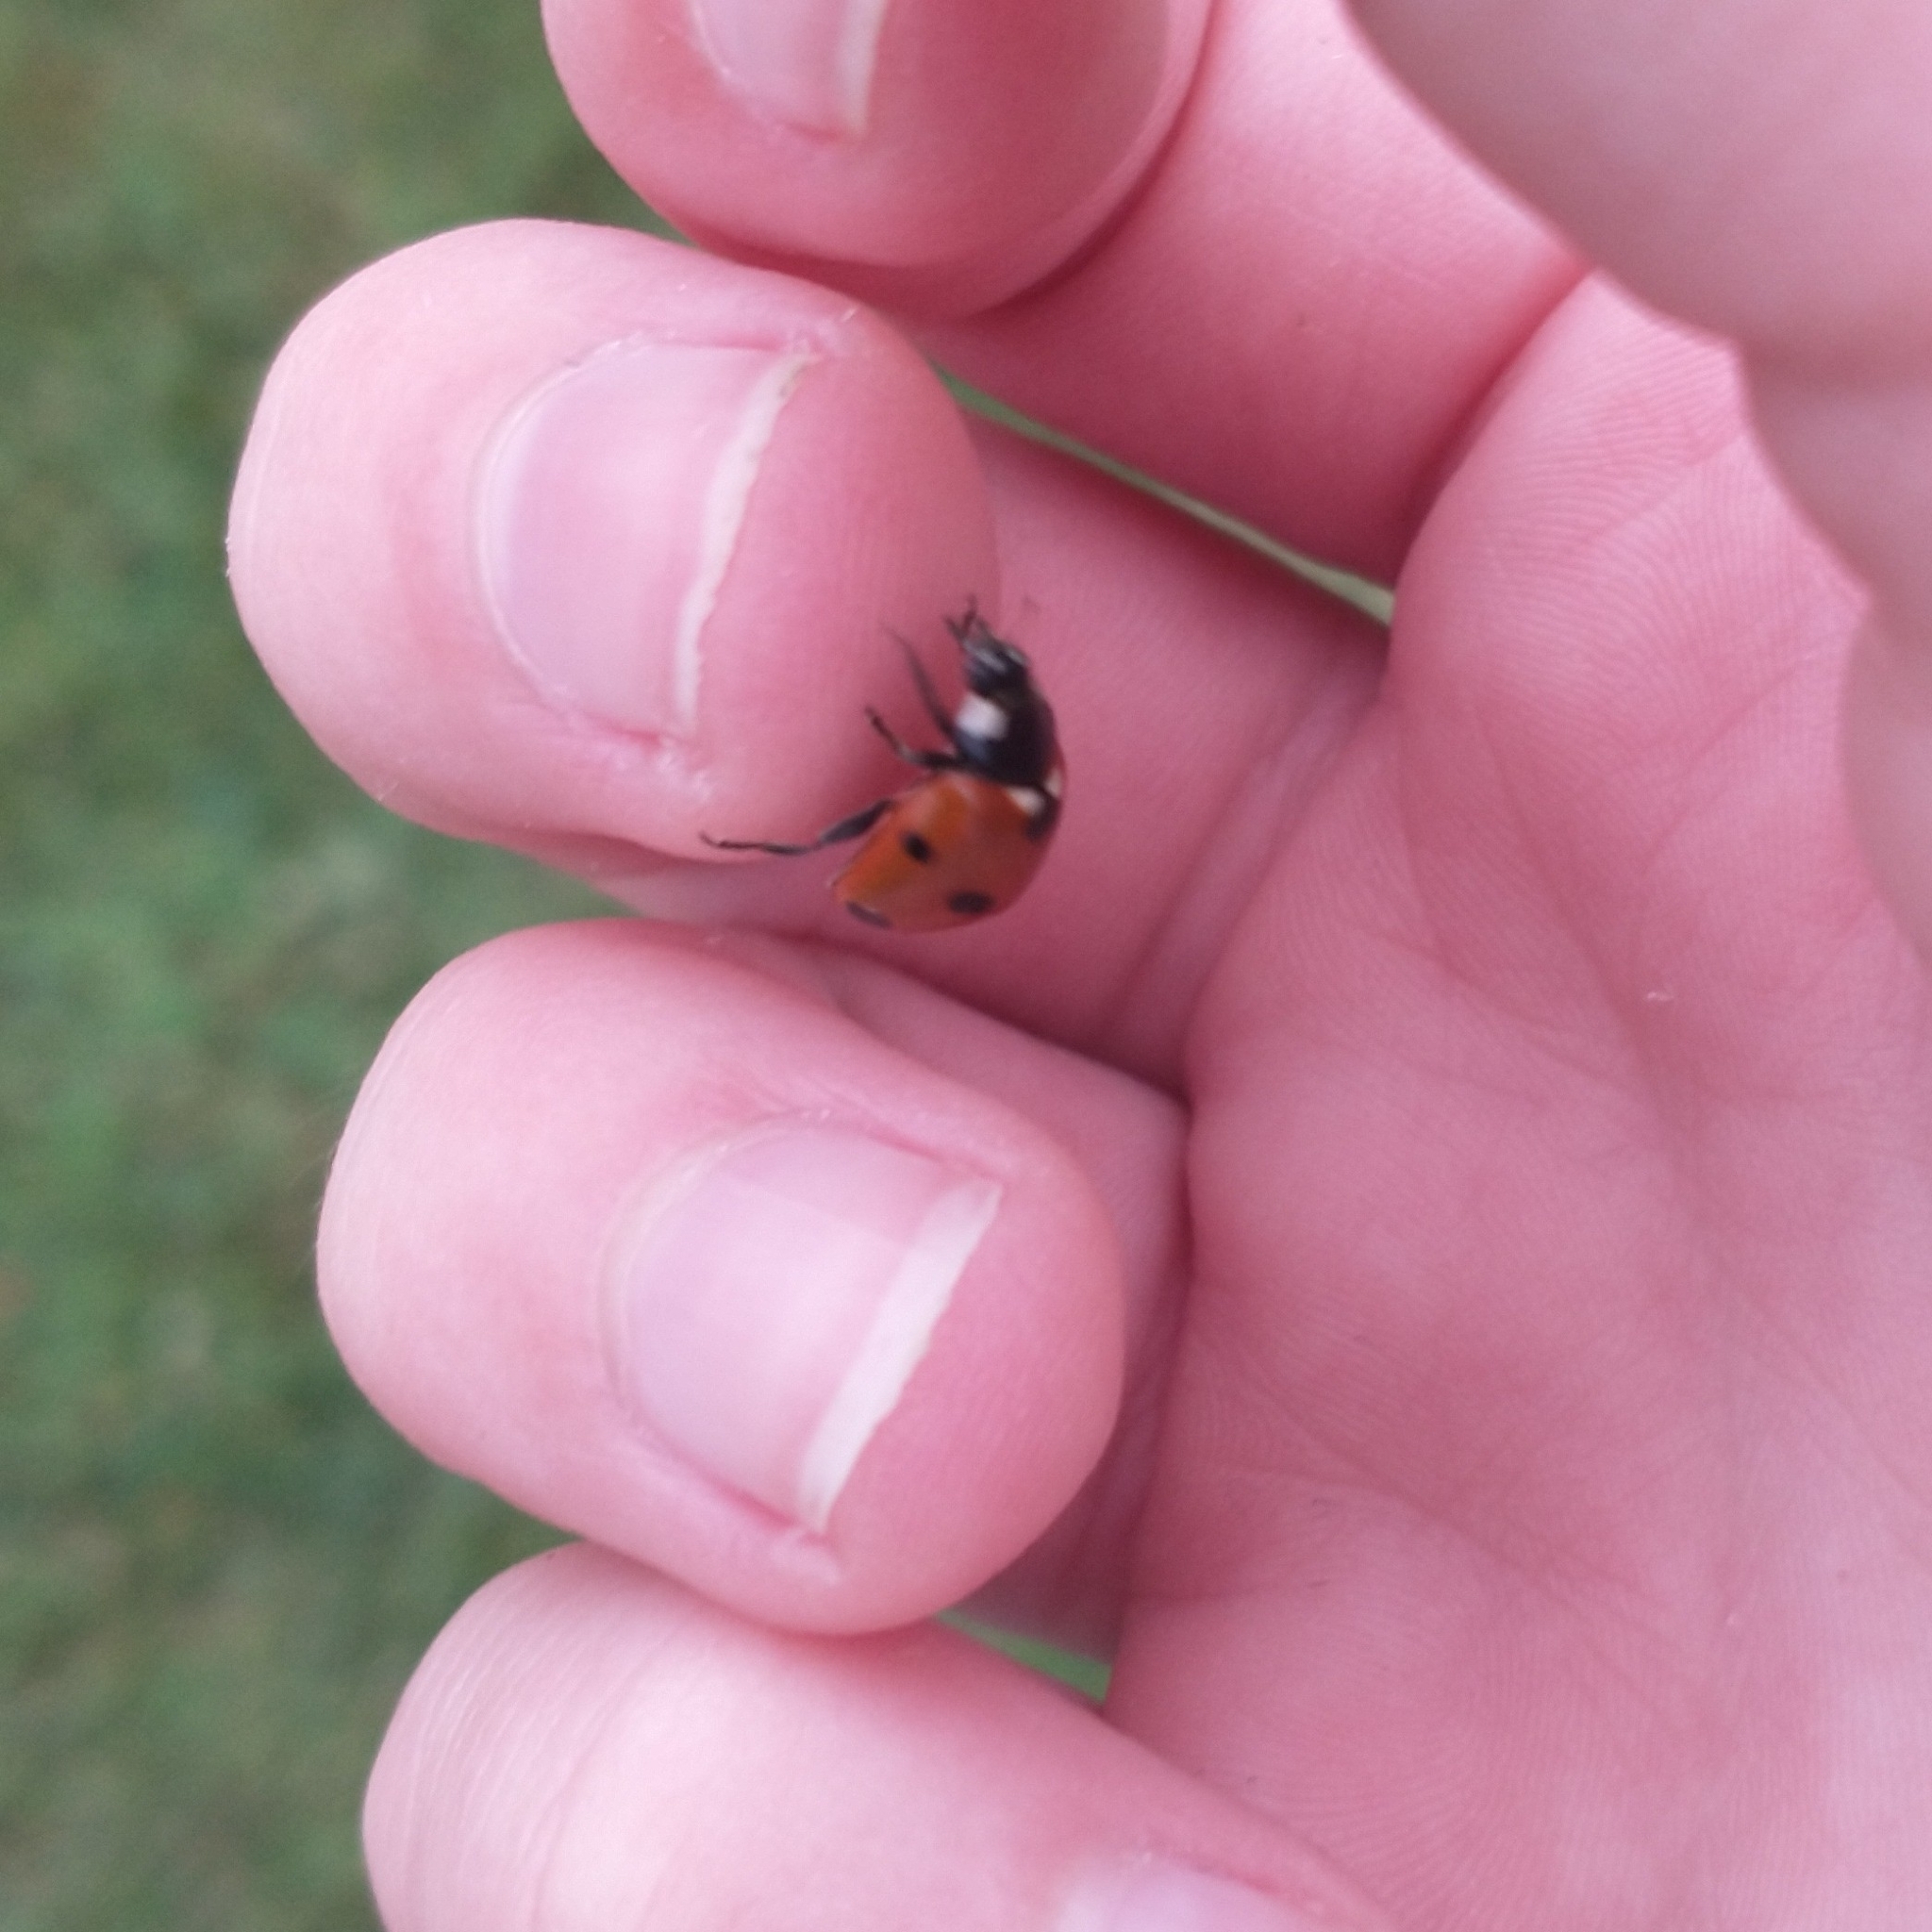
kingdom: Animalia
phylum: Arthropoda
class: Insecta
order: Coleoptera
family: Coccinellidae
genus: Coccinella
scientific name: Coccinella septempunctata
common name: Sevenspotted lady beetle
